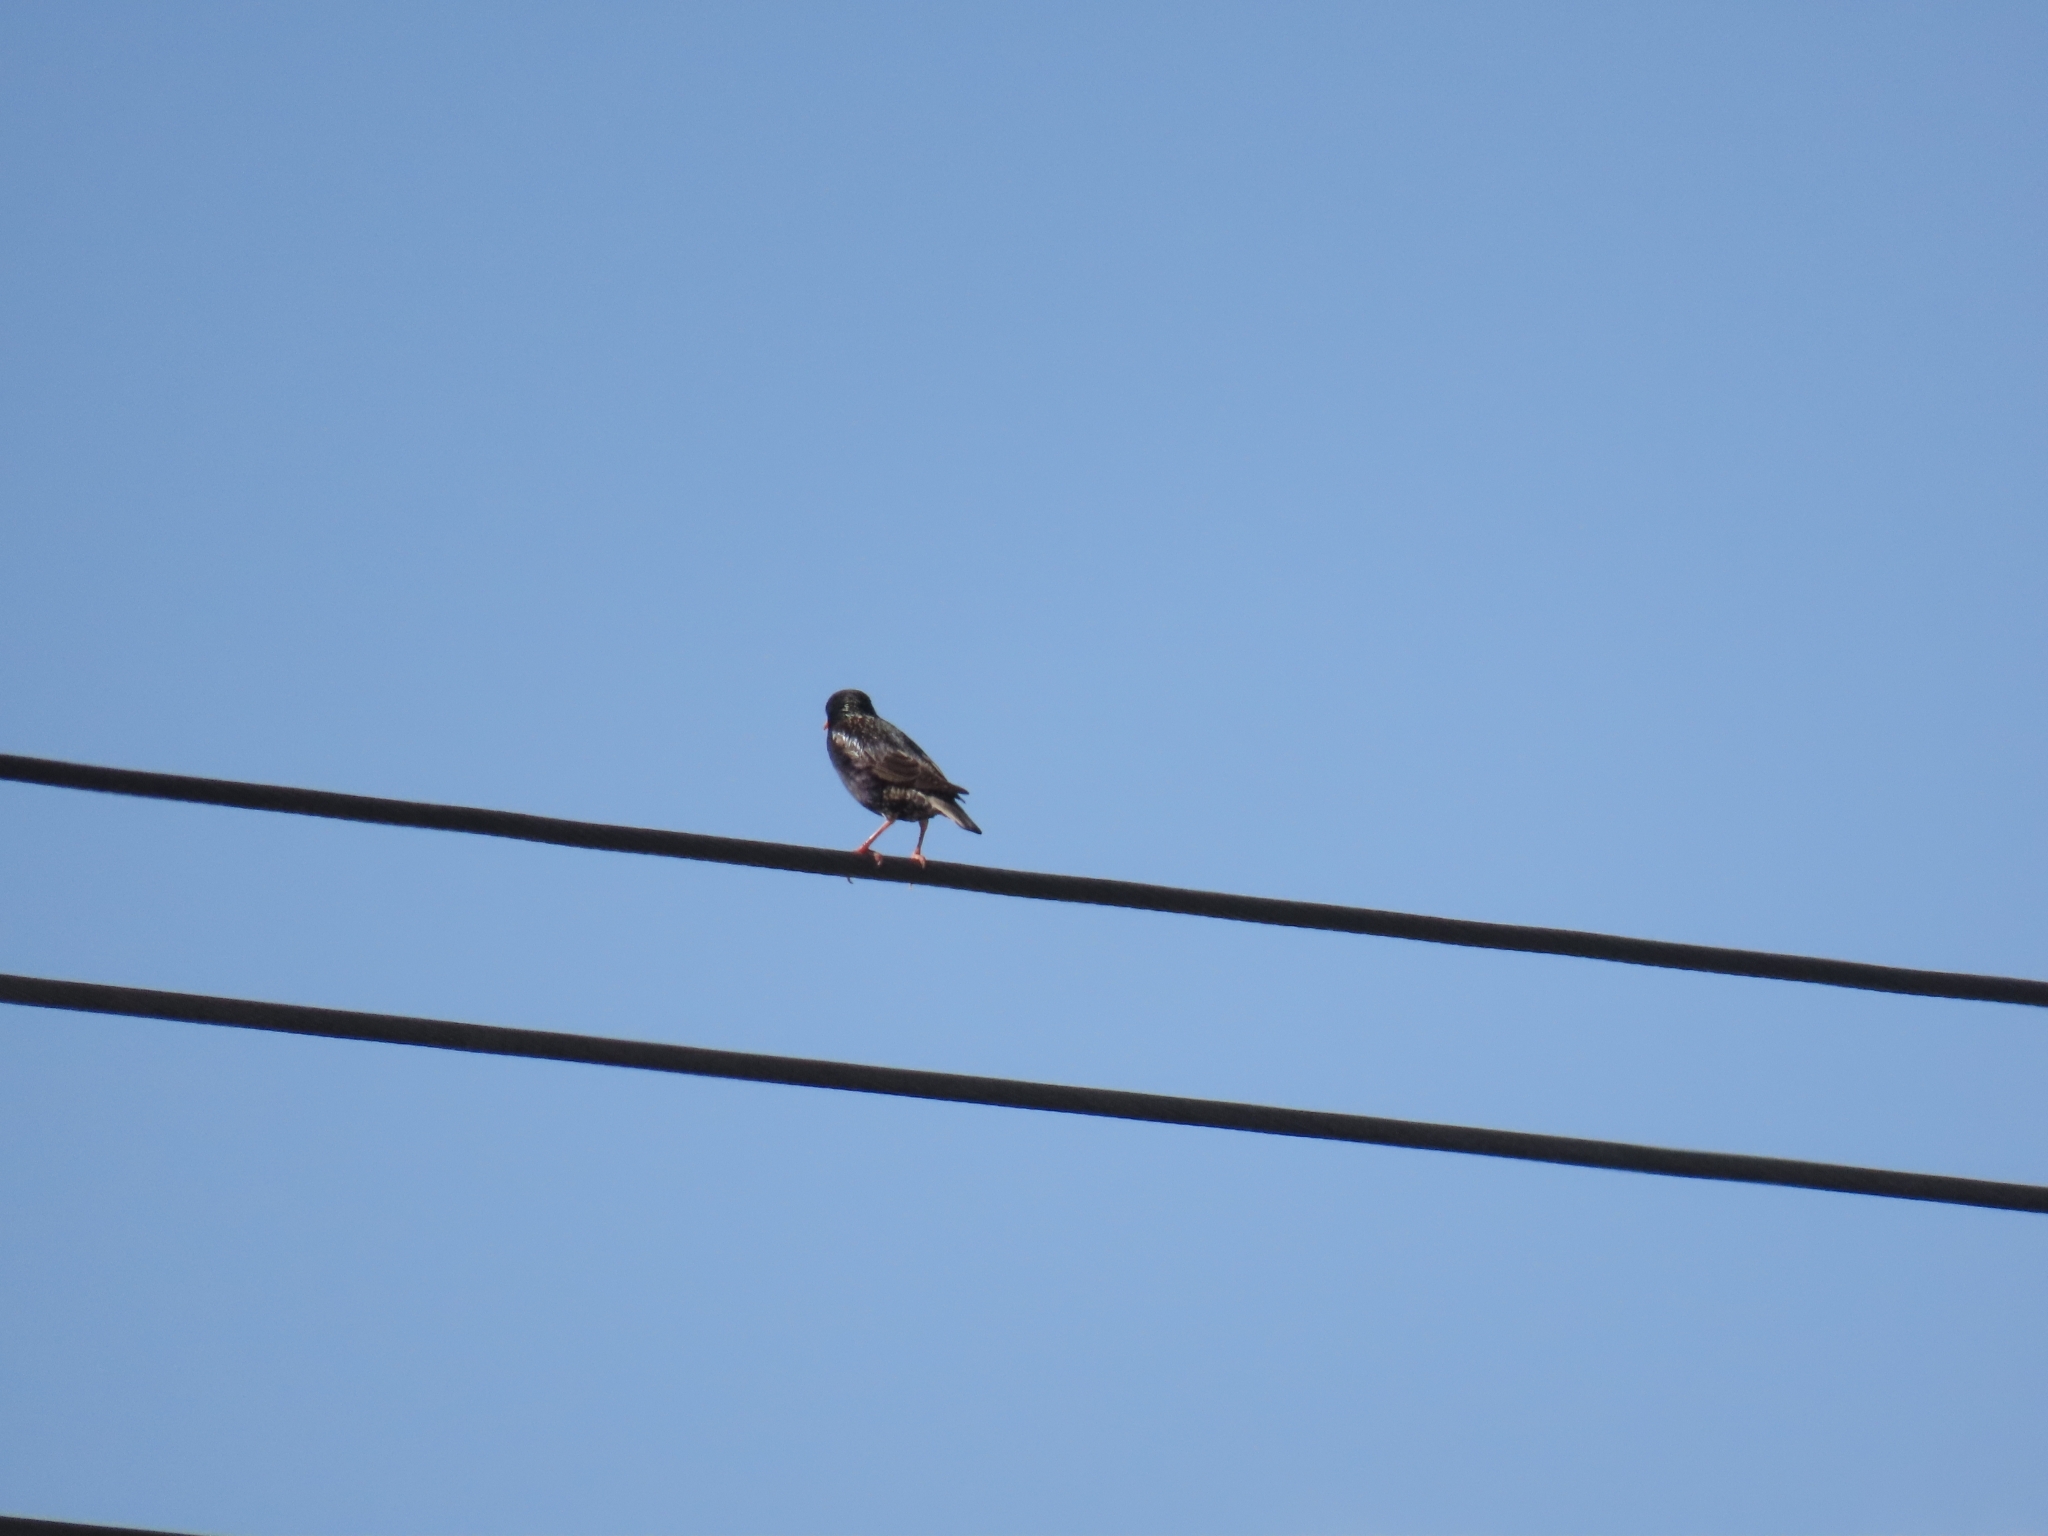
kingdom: Animalia
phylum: Chordata
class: Aves
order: Passeriformes
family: Sturnidae
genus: Sturnus
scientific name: Sturnus vulgaris
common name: Common starling
